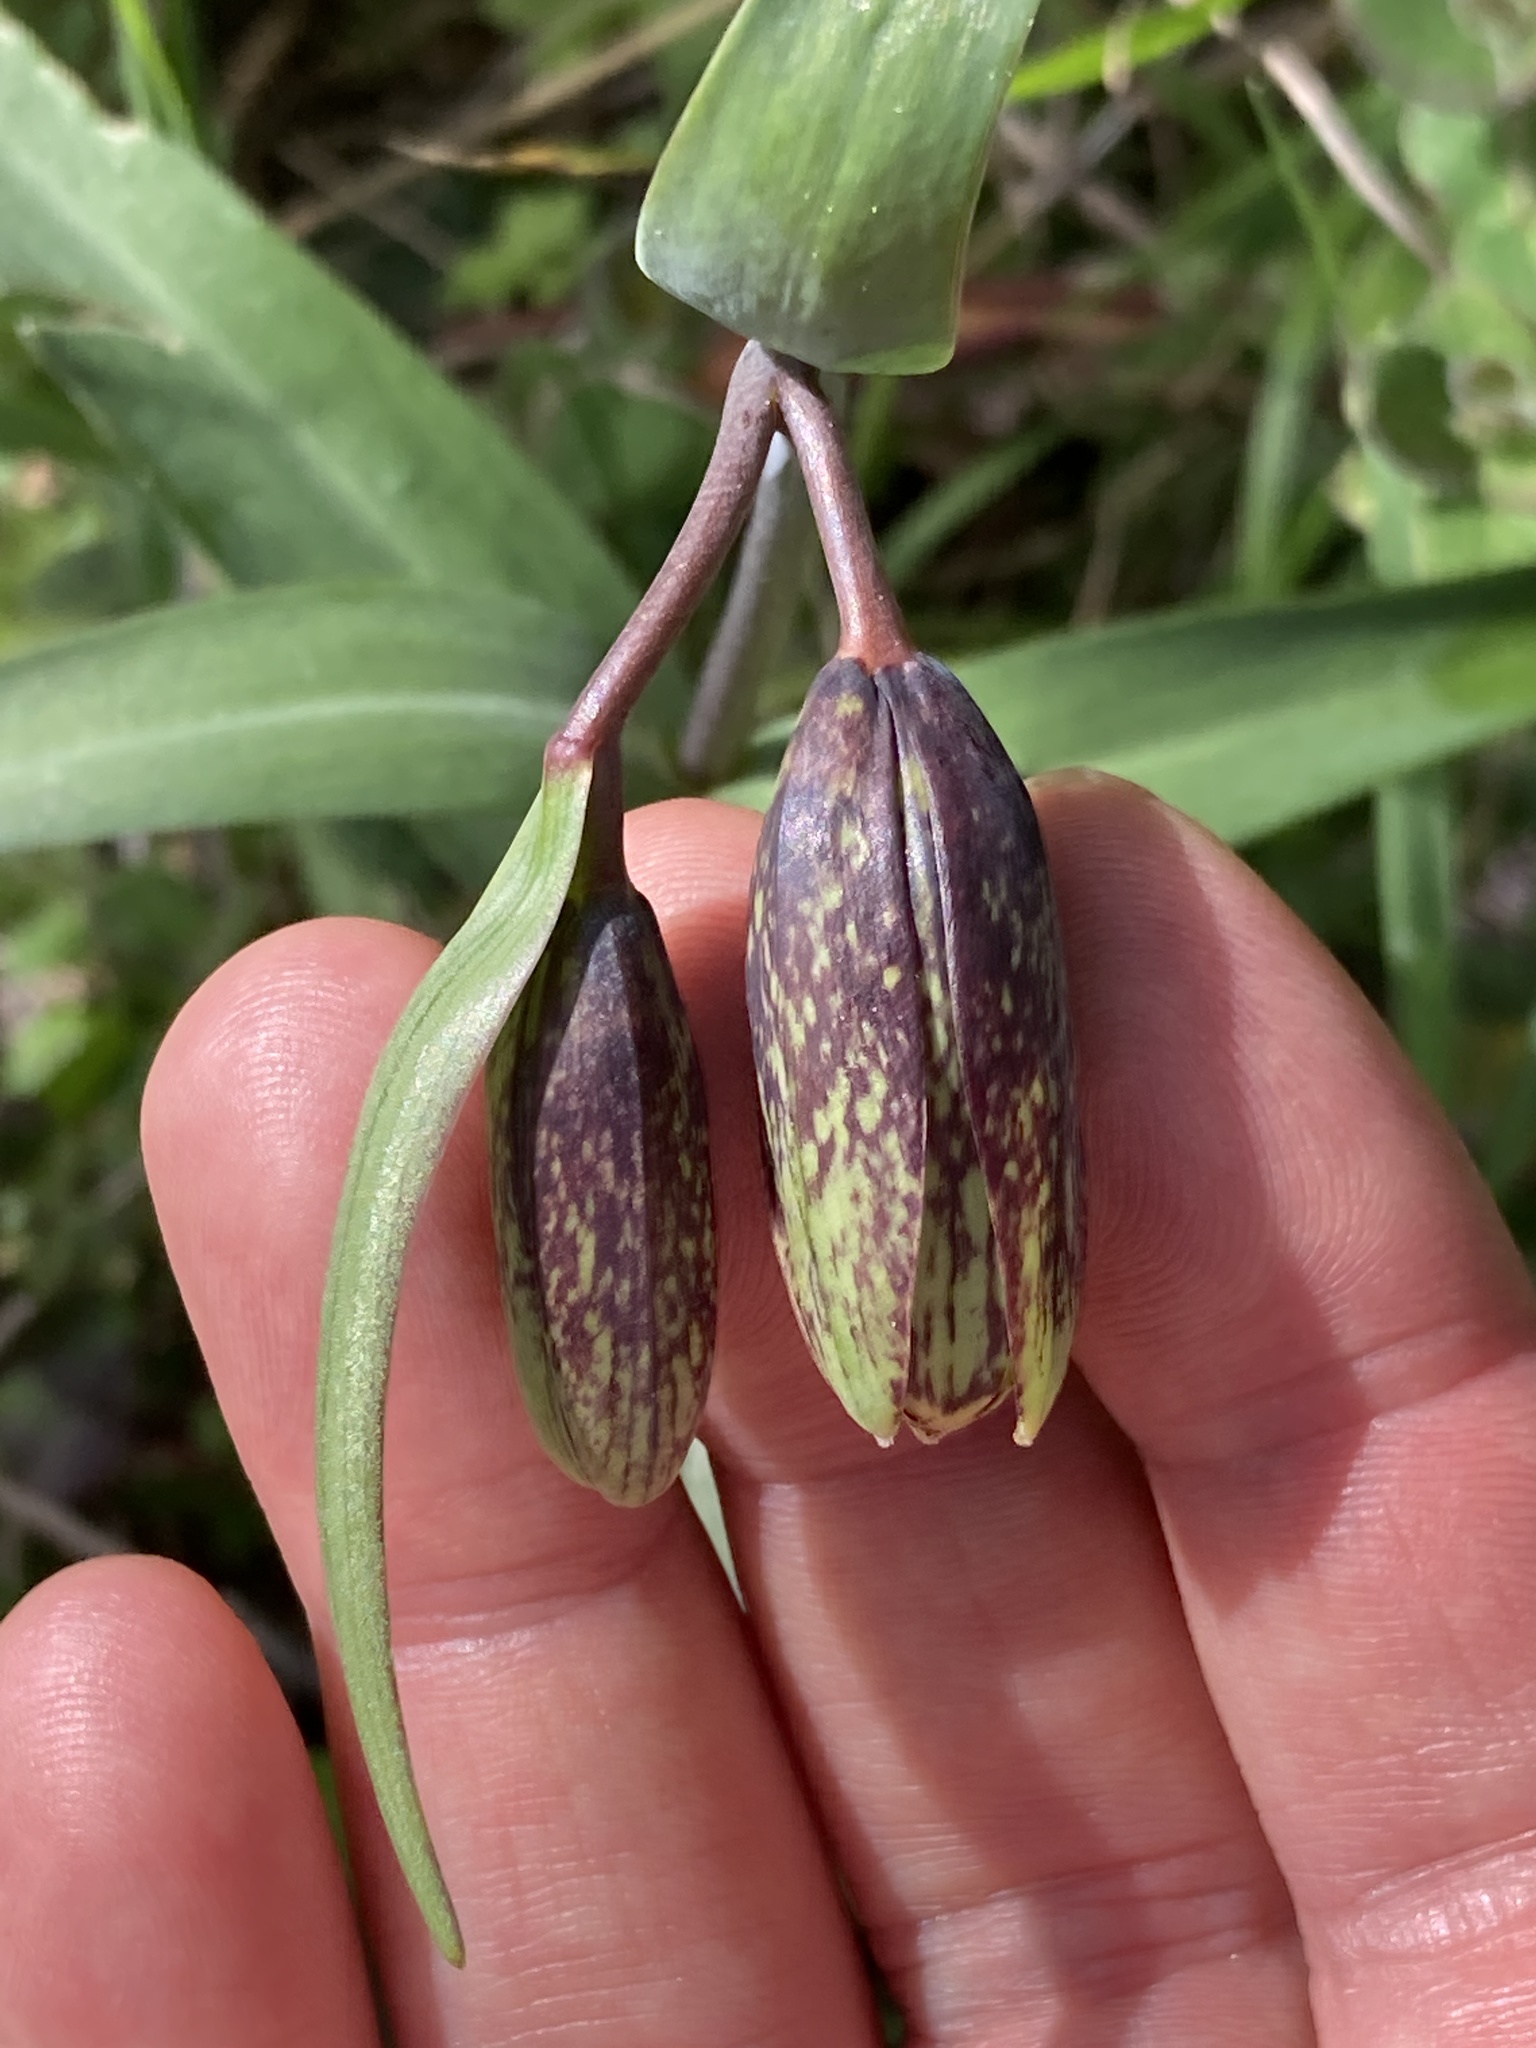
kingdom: Plantae
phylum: Tracheophyta
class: Liliopsida
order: Liliales
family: Liliaceae
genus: Fritillaria
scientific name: Fritillaria affinis
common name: Ojai fritillary
